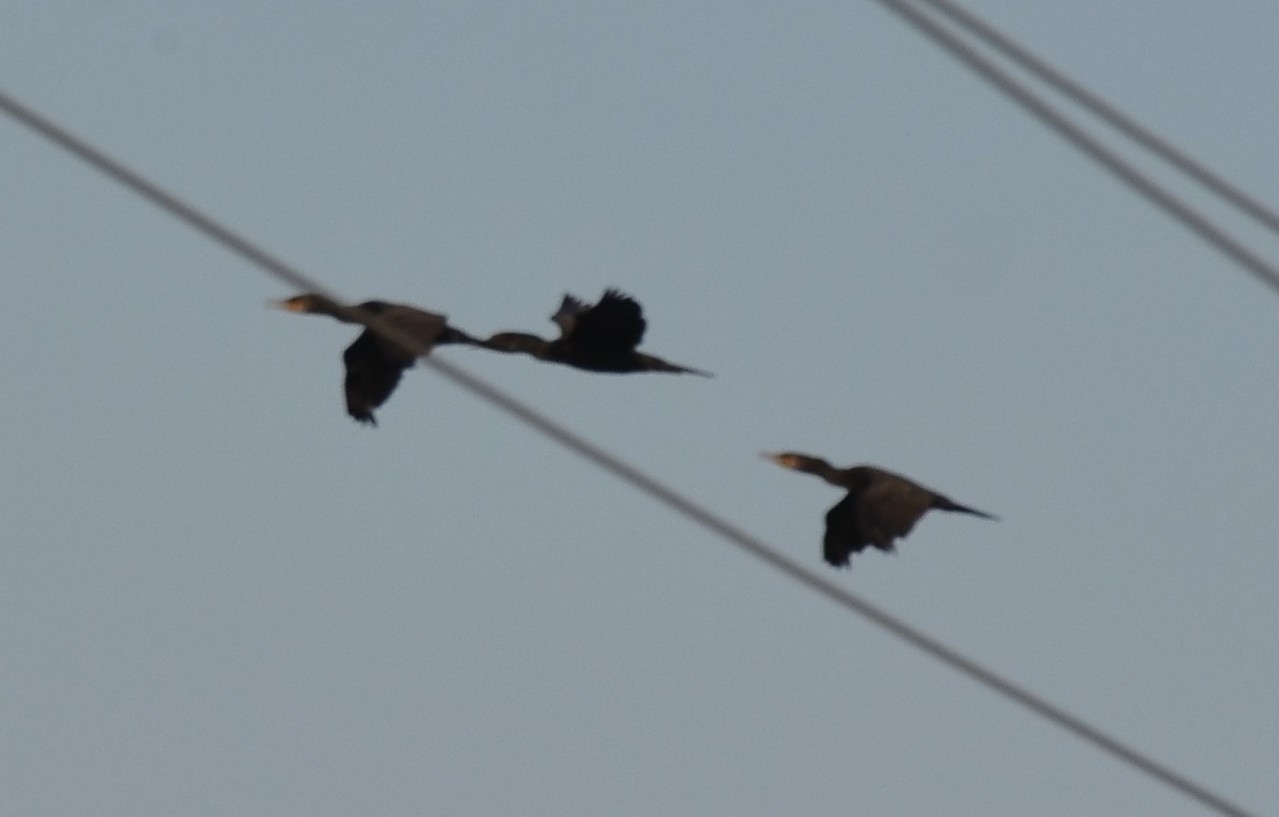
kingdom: Animalia
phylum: Chordata
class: Aves
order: Suliformes
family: Phalacrocoracidae
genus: Phalacrocorax
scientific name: Phalacrocorax fuscicollis
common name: Indian cormorant
